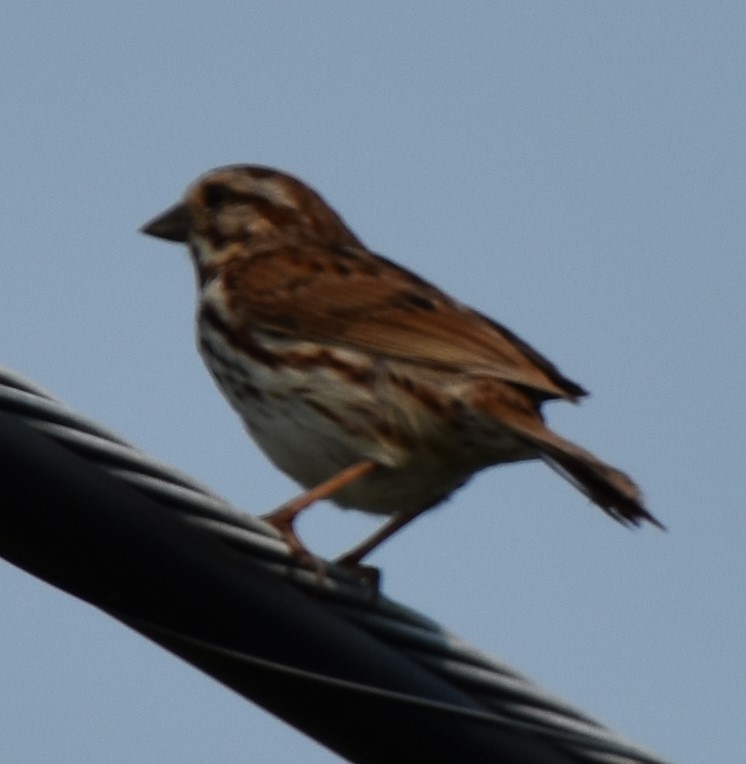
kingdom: Animalia
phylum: Chordata
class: Aves
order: Passeriformes
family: Passerellidae
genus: Melospiza
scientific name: Melospiza melodia
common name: Song sparrow
